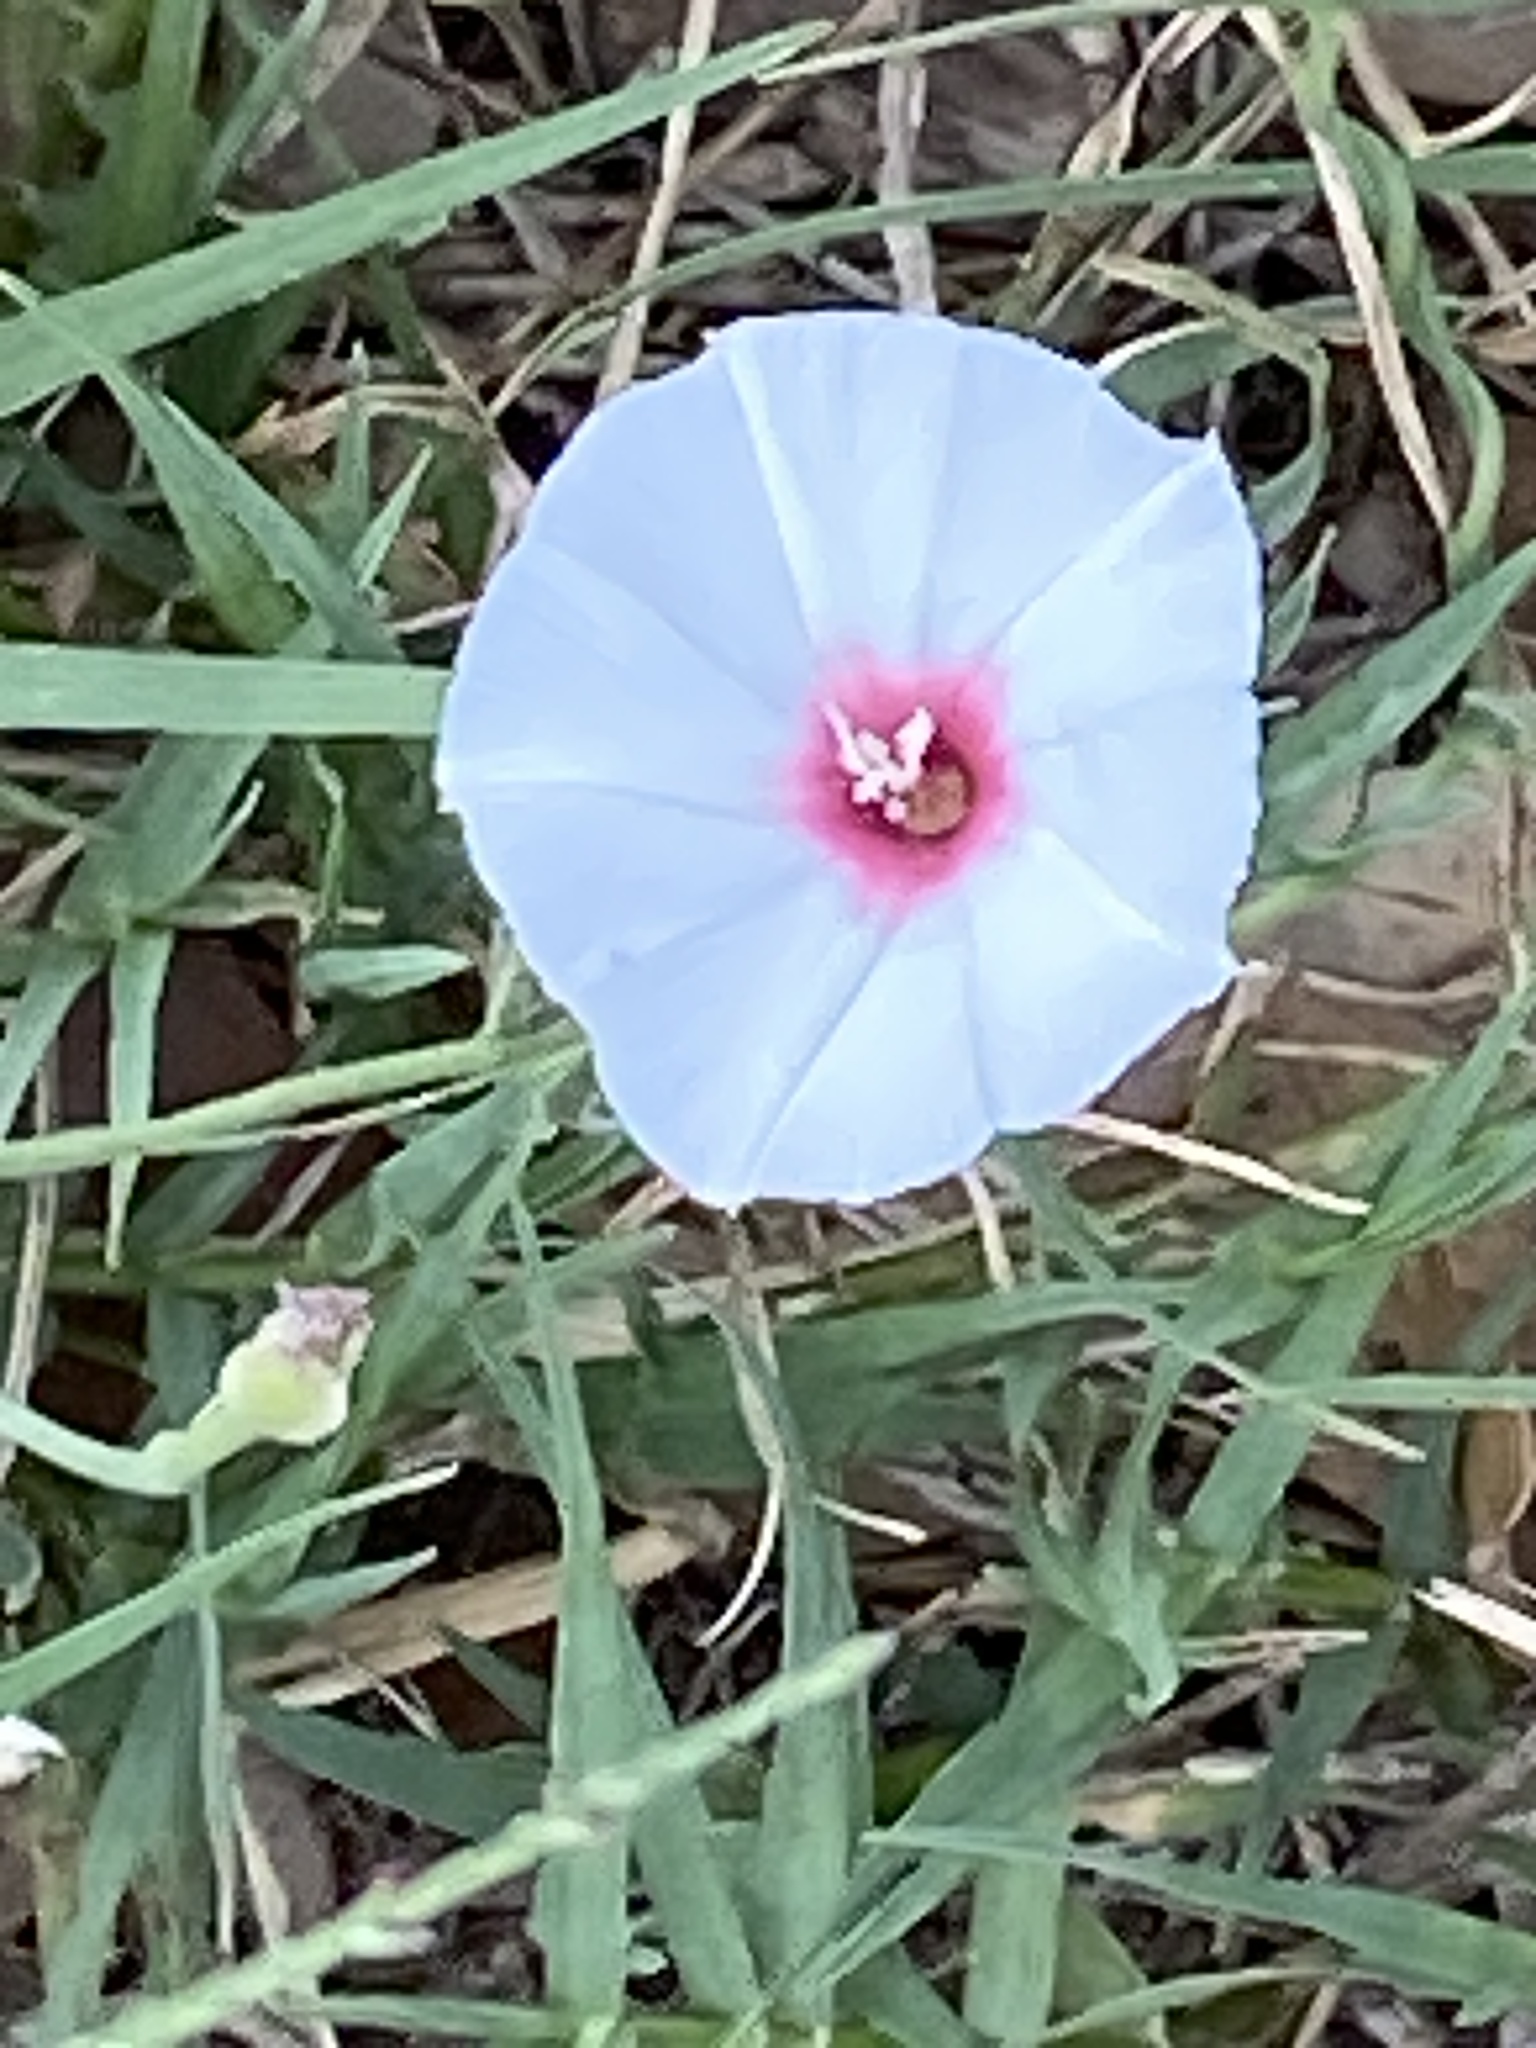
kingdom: Plantae
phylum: Tracheophyta
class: Magnoliopsida
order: Solanales
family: Convolvulaceae
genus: Convolvulus
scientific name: Convolvulus equitans
